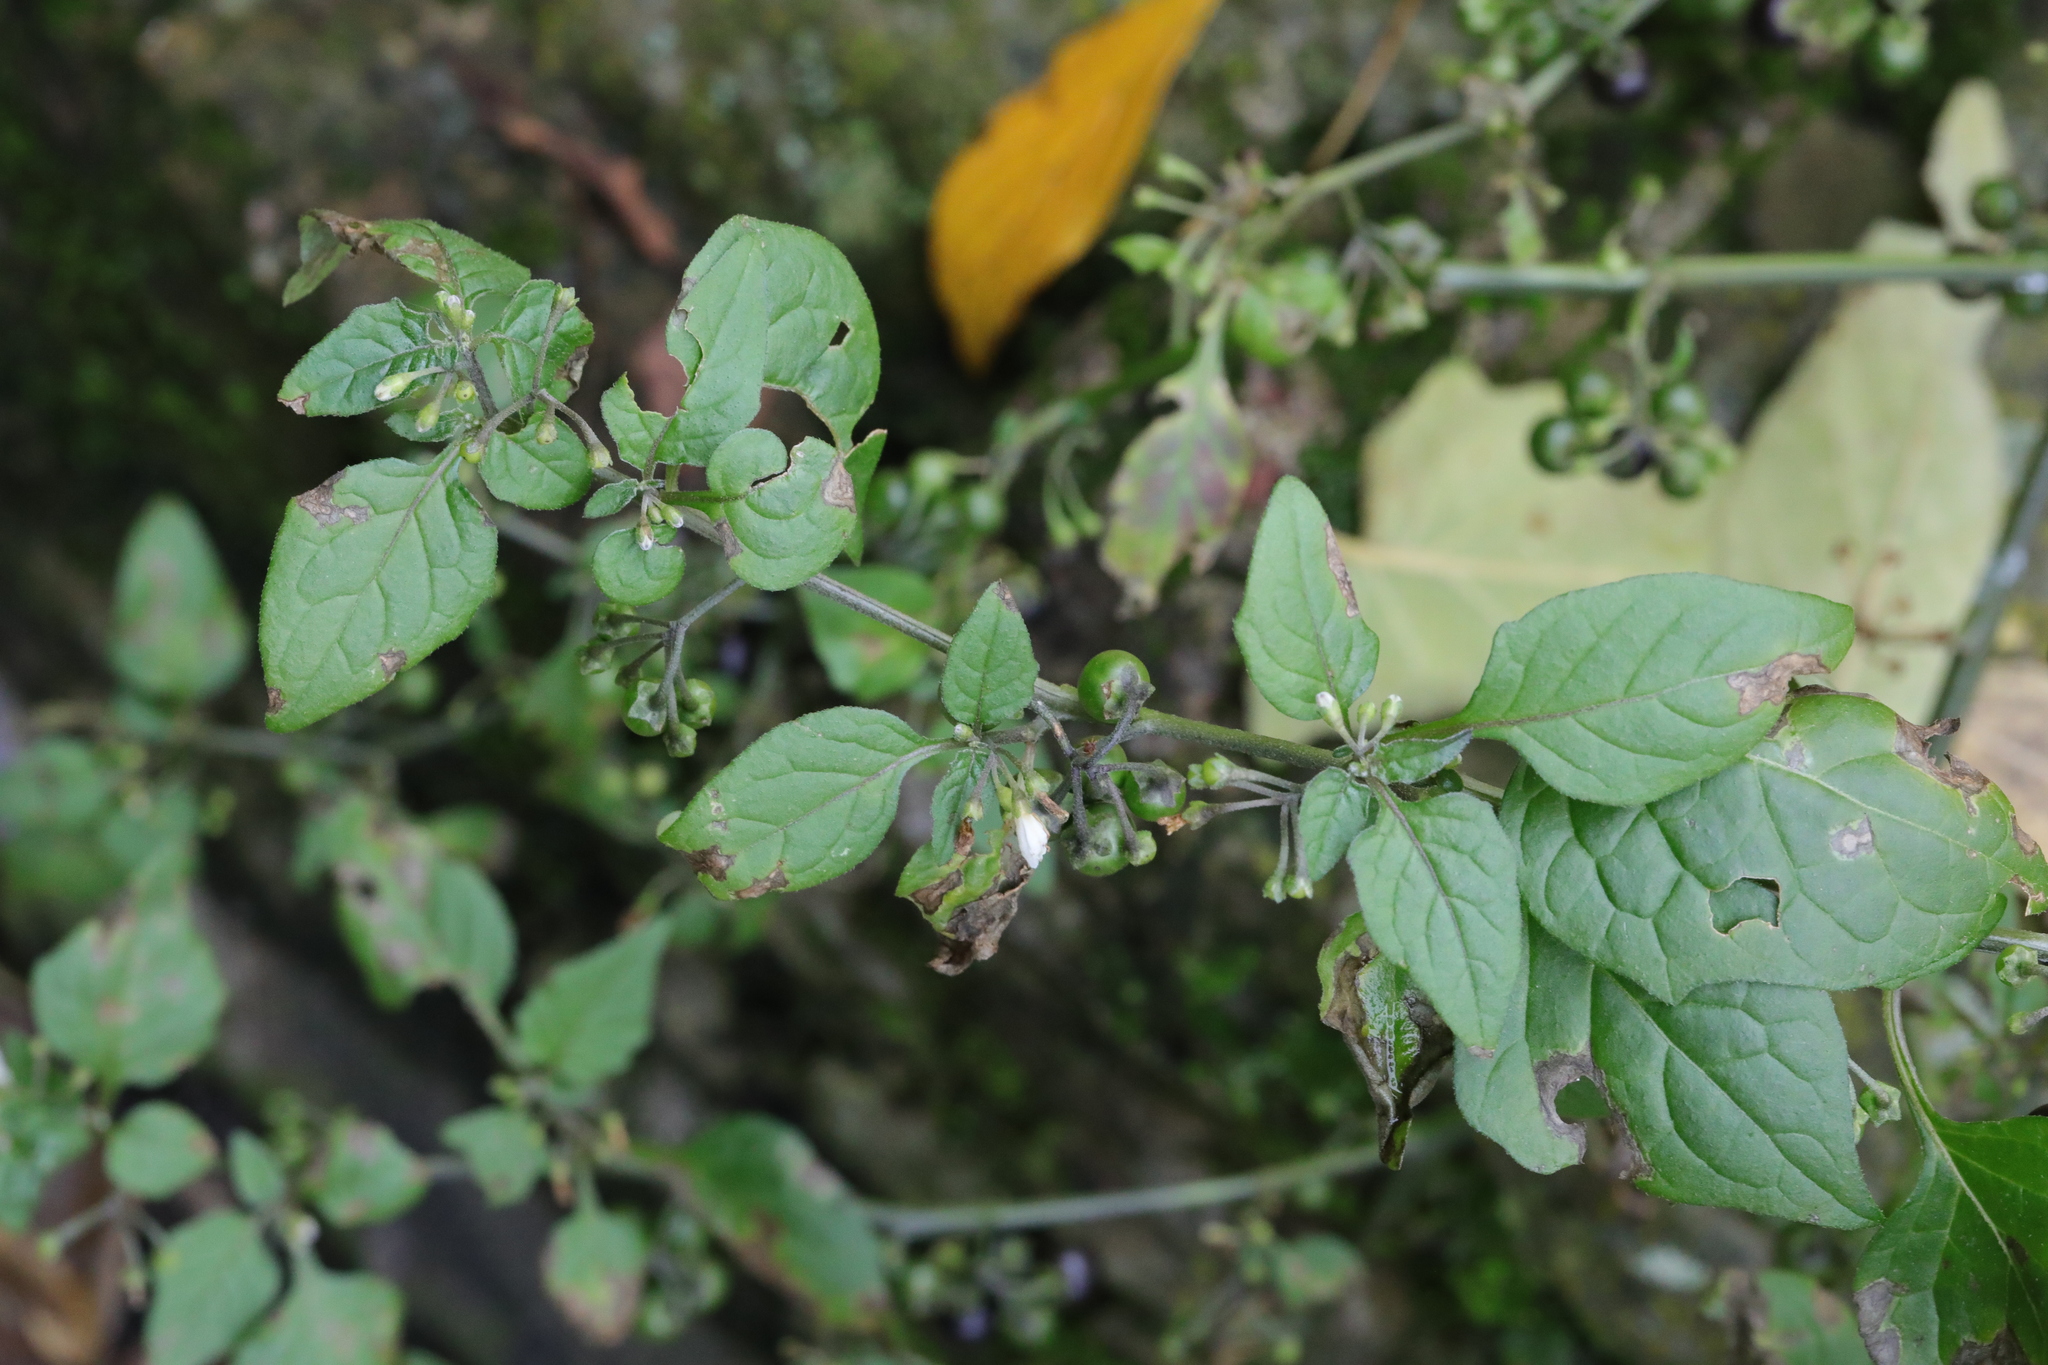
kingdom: Plantae
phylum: Tracheophyta
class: Magnoliopsida
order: Solanales
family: Solanaceae
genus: Solanum
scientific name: Solanum nigrum
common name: Black nightshade
